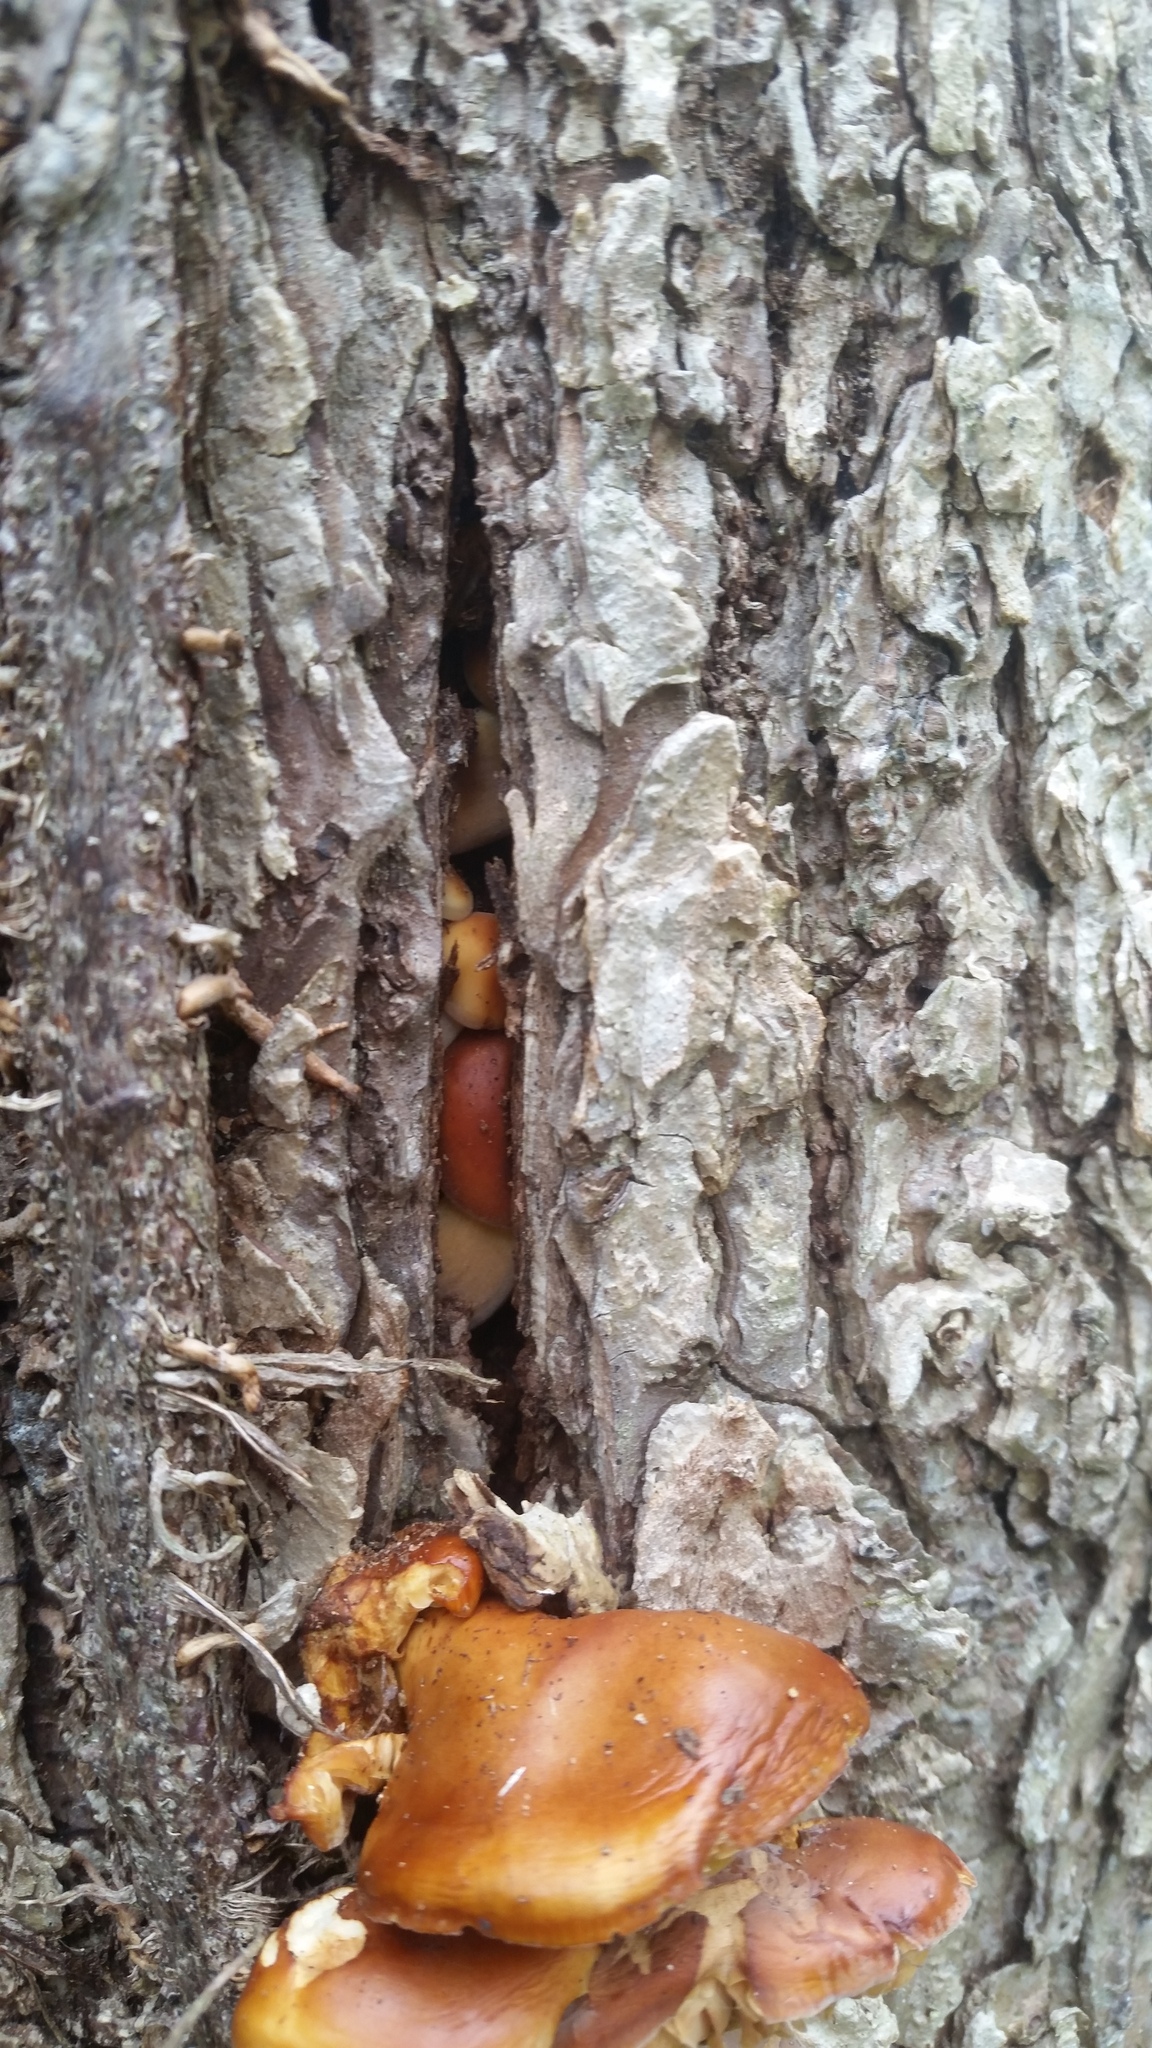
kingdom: Fungi
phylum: Basidiomycota
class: Agaricomycetes
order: Agaricales
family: Physalacriaceae
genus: Flammulina
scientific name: Flammulina velutipes
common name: Velvet shank
